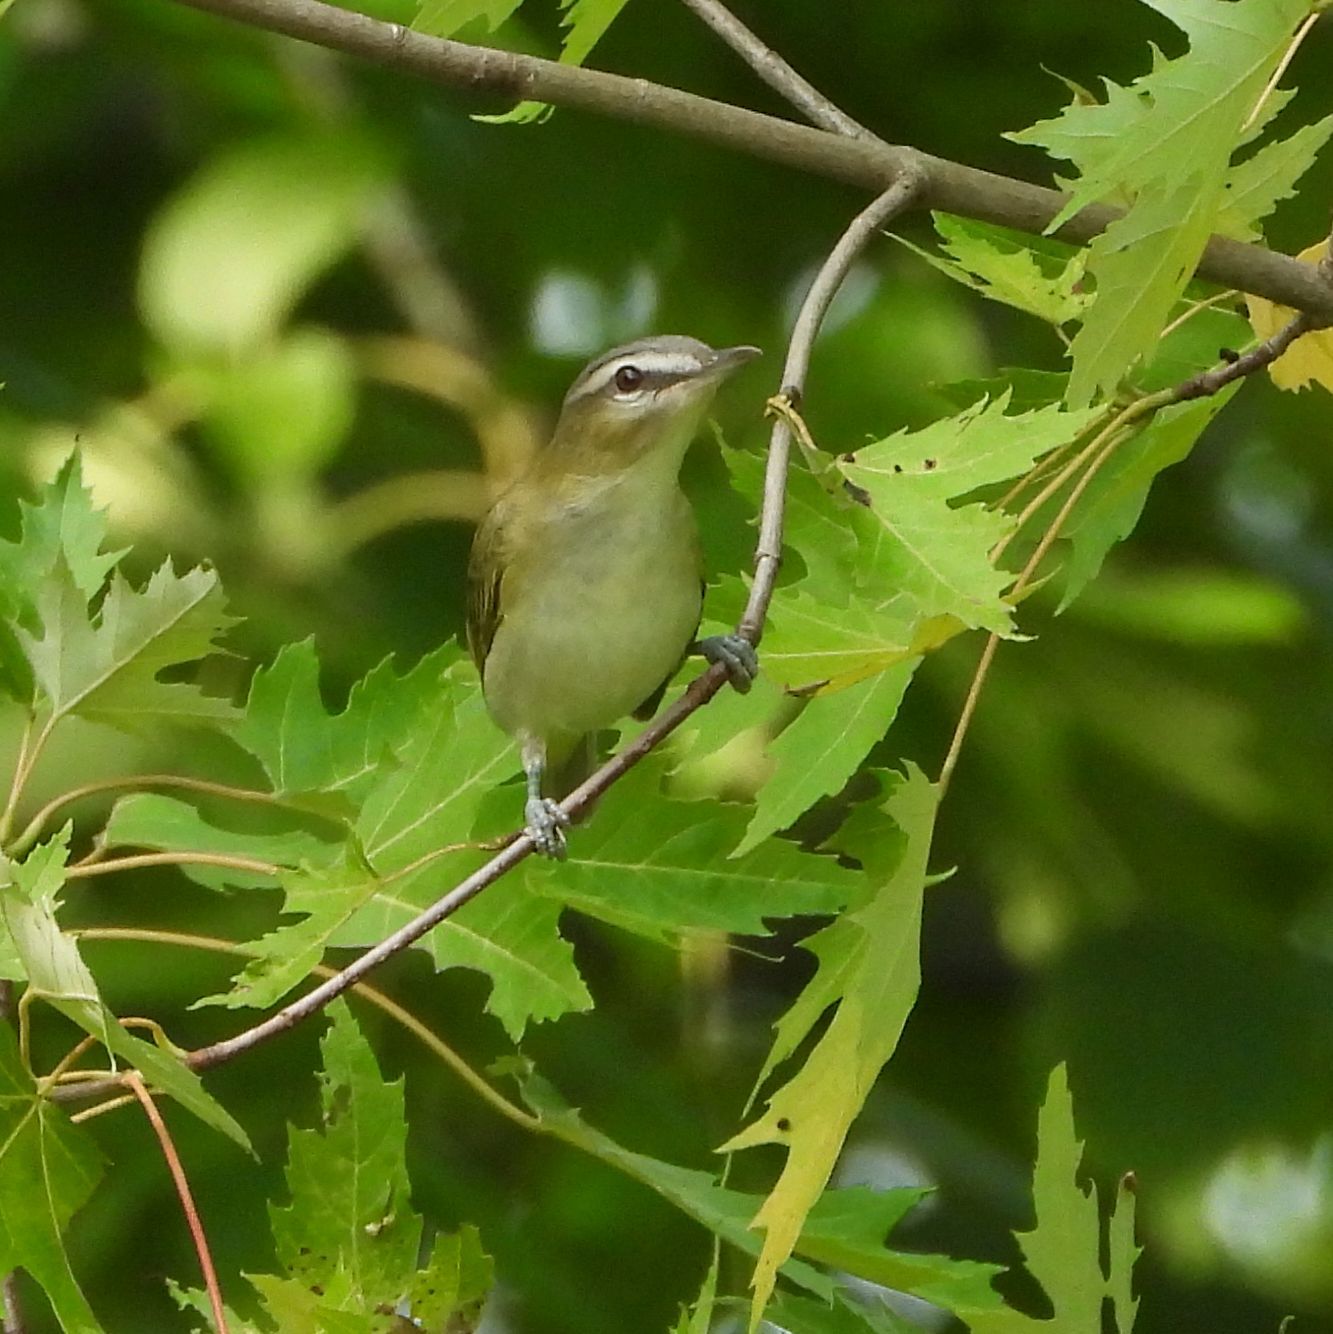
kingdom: Animalia
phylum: Chordata
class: Aves
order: Passeriformes
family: Vireonidae
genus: Vireo
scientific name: Vireo olivaceus
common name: Red-eyed vireo
